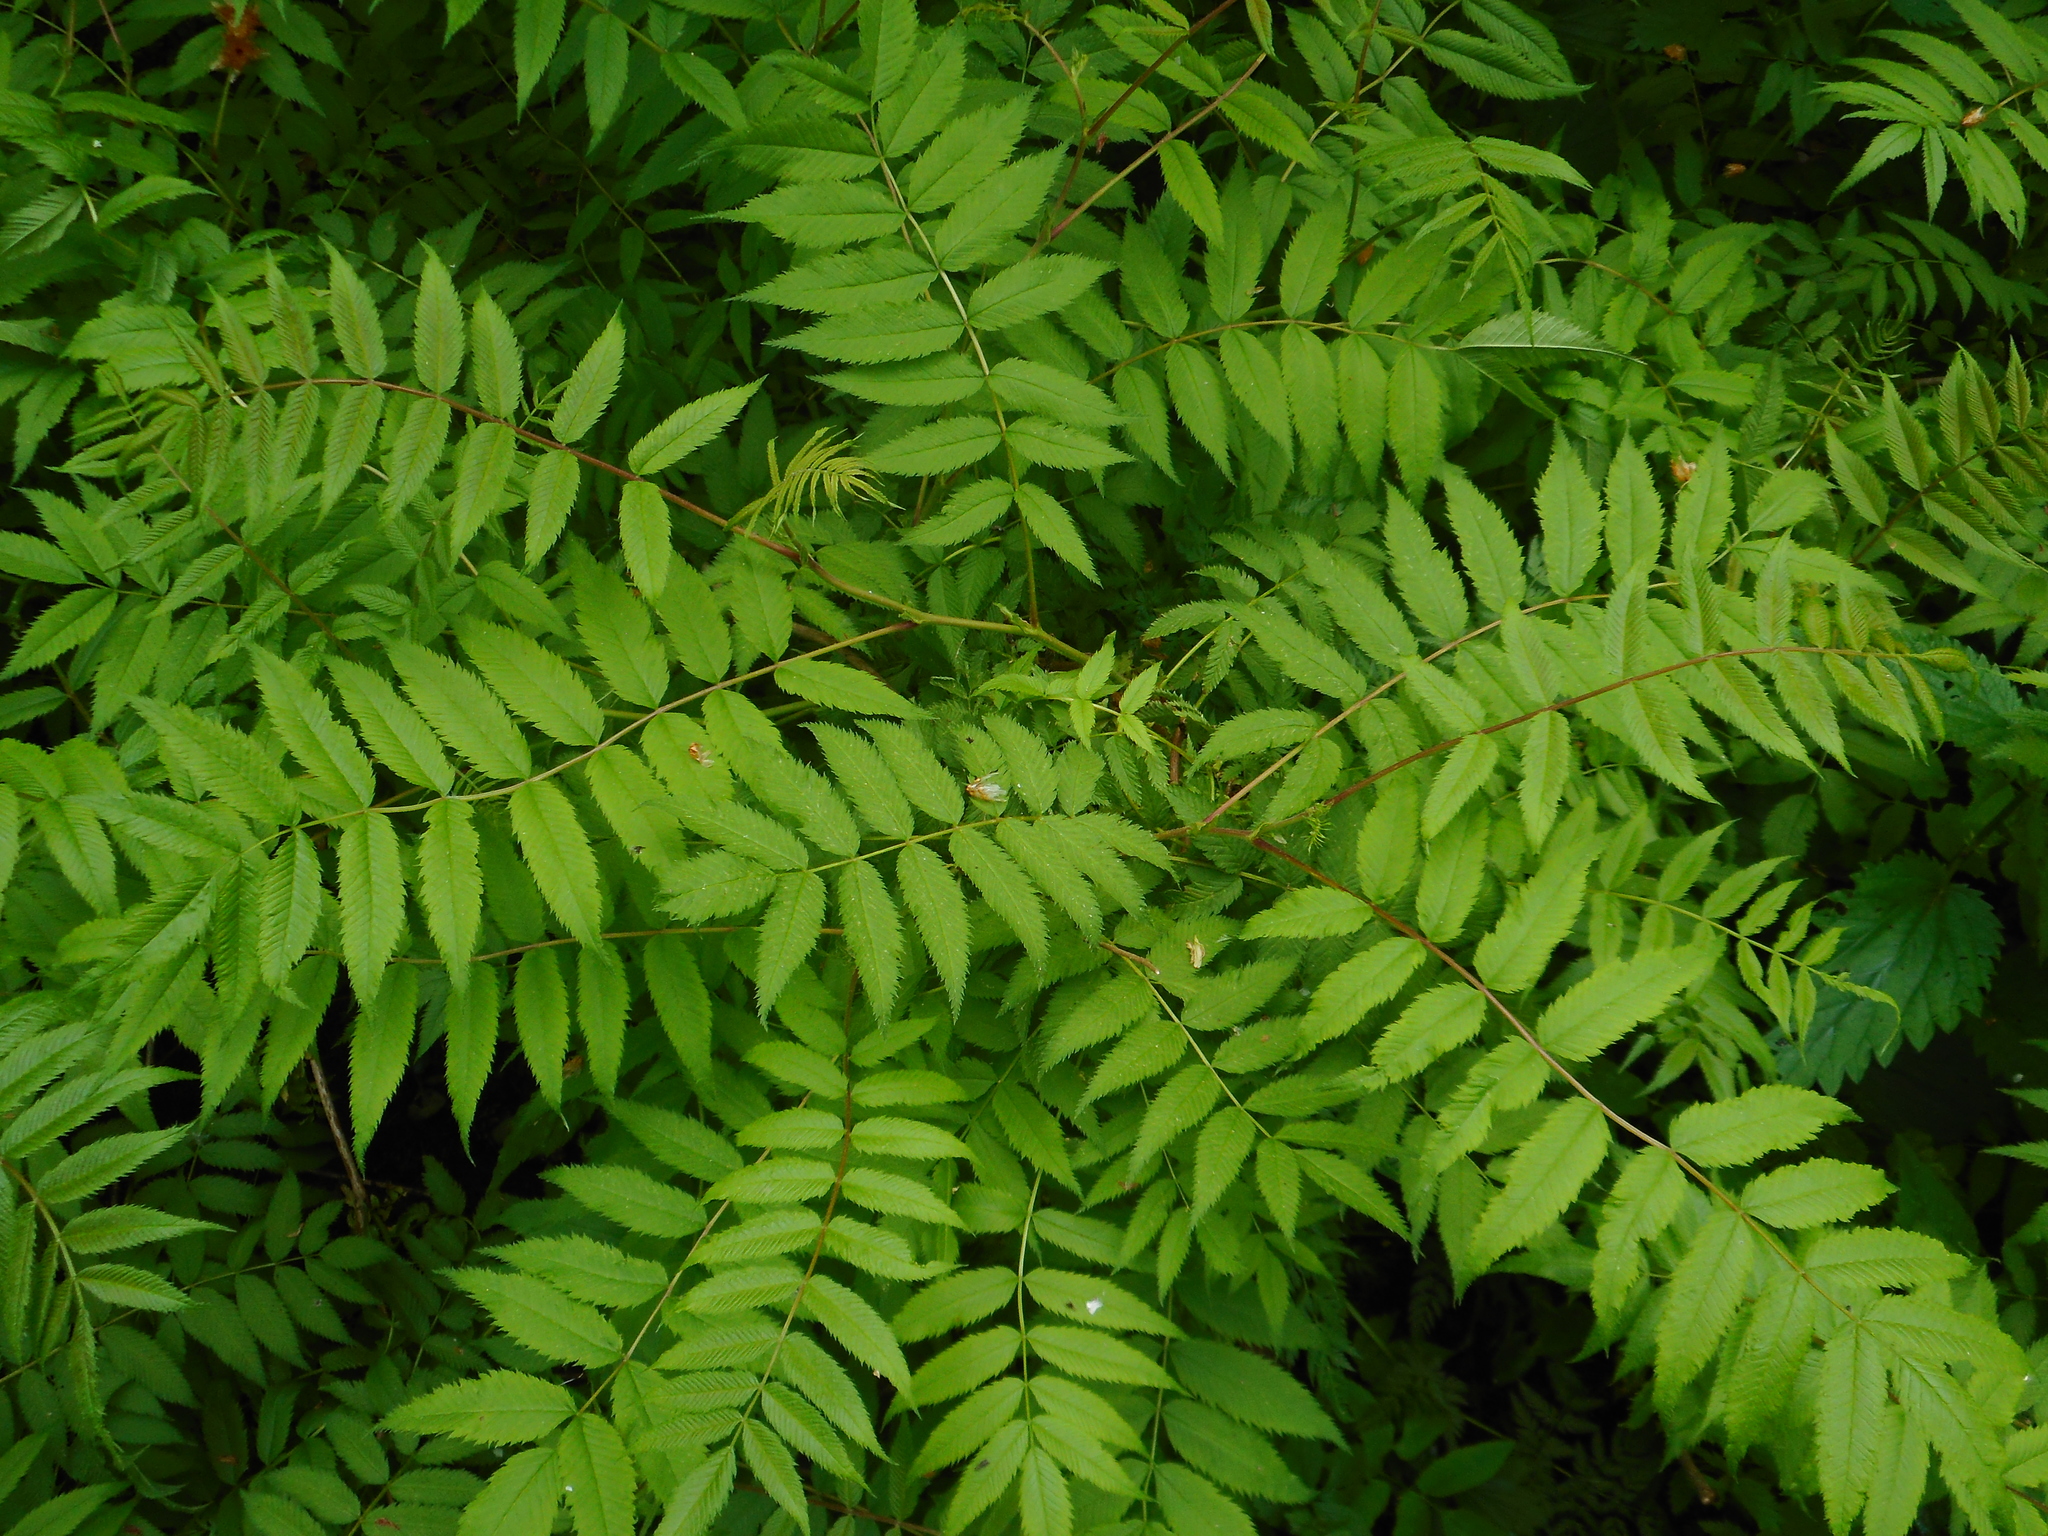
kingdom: Plantae
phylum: Tracheophyta
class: Magnoliopsida
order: Rosales
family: Rosaceae
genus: Sorbaria
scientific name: Sorbaria sorbifolia
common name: False spiraea
